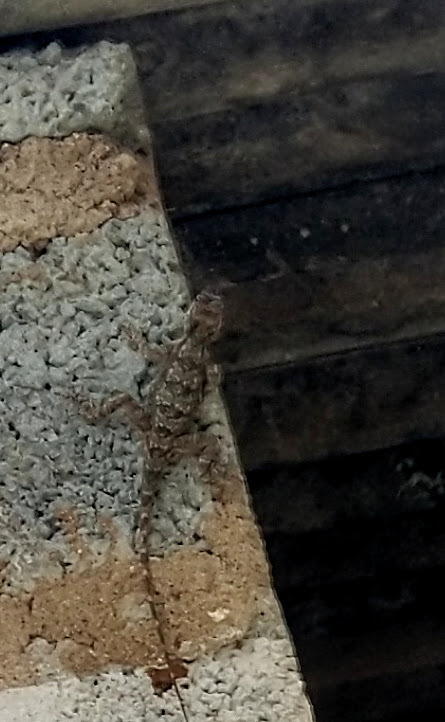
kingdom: Animalia
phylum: Chordata
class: Squamata
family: Agamidae
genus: Psammophilus
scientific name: Psammophilus dorsalis
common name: South indian rock agama
